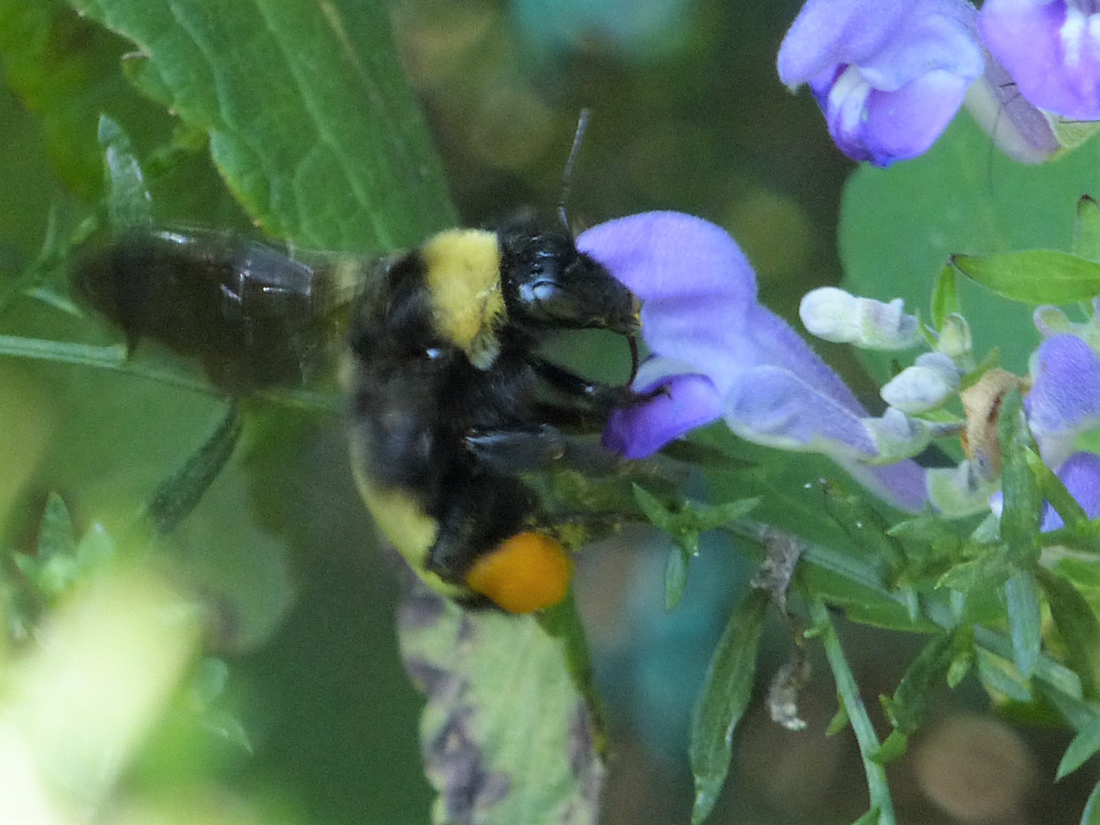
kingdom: Animalia
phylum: Arthropoda
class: Insecta
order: Hymenoptera
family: Apidae
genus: Bombus
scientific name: Bombus pensylvanicus
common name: Bumble bee
